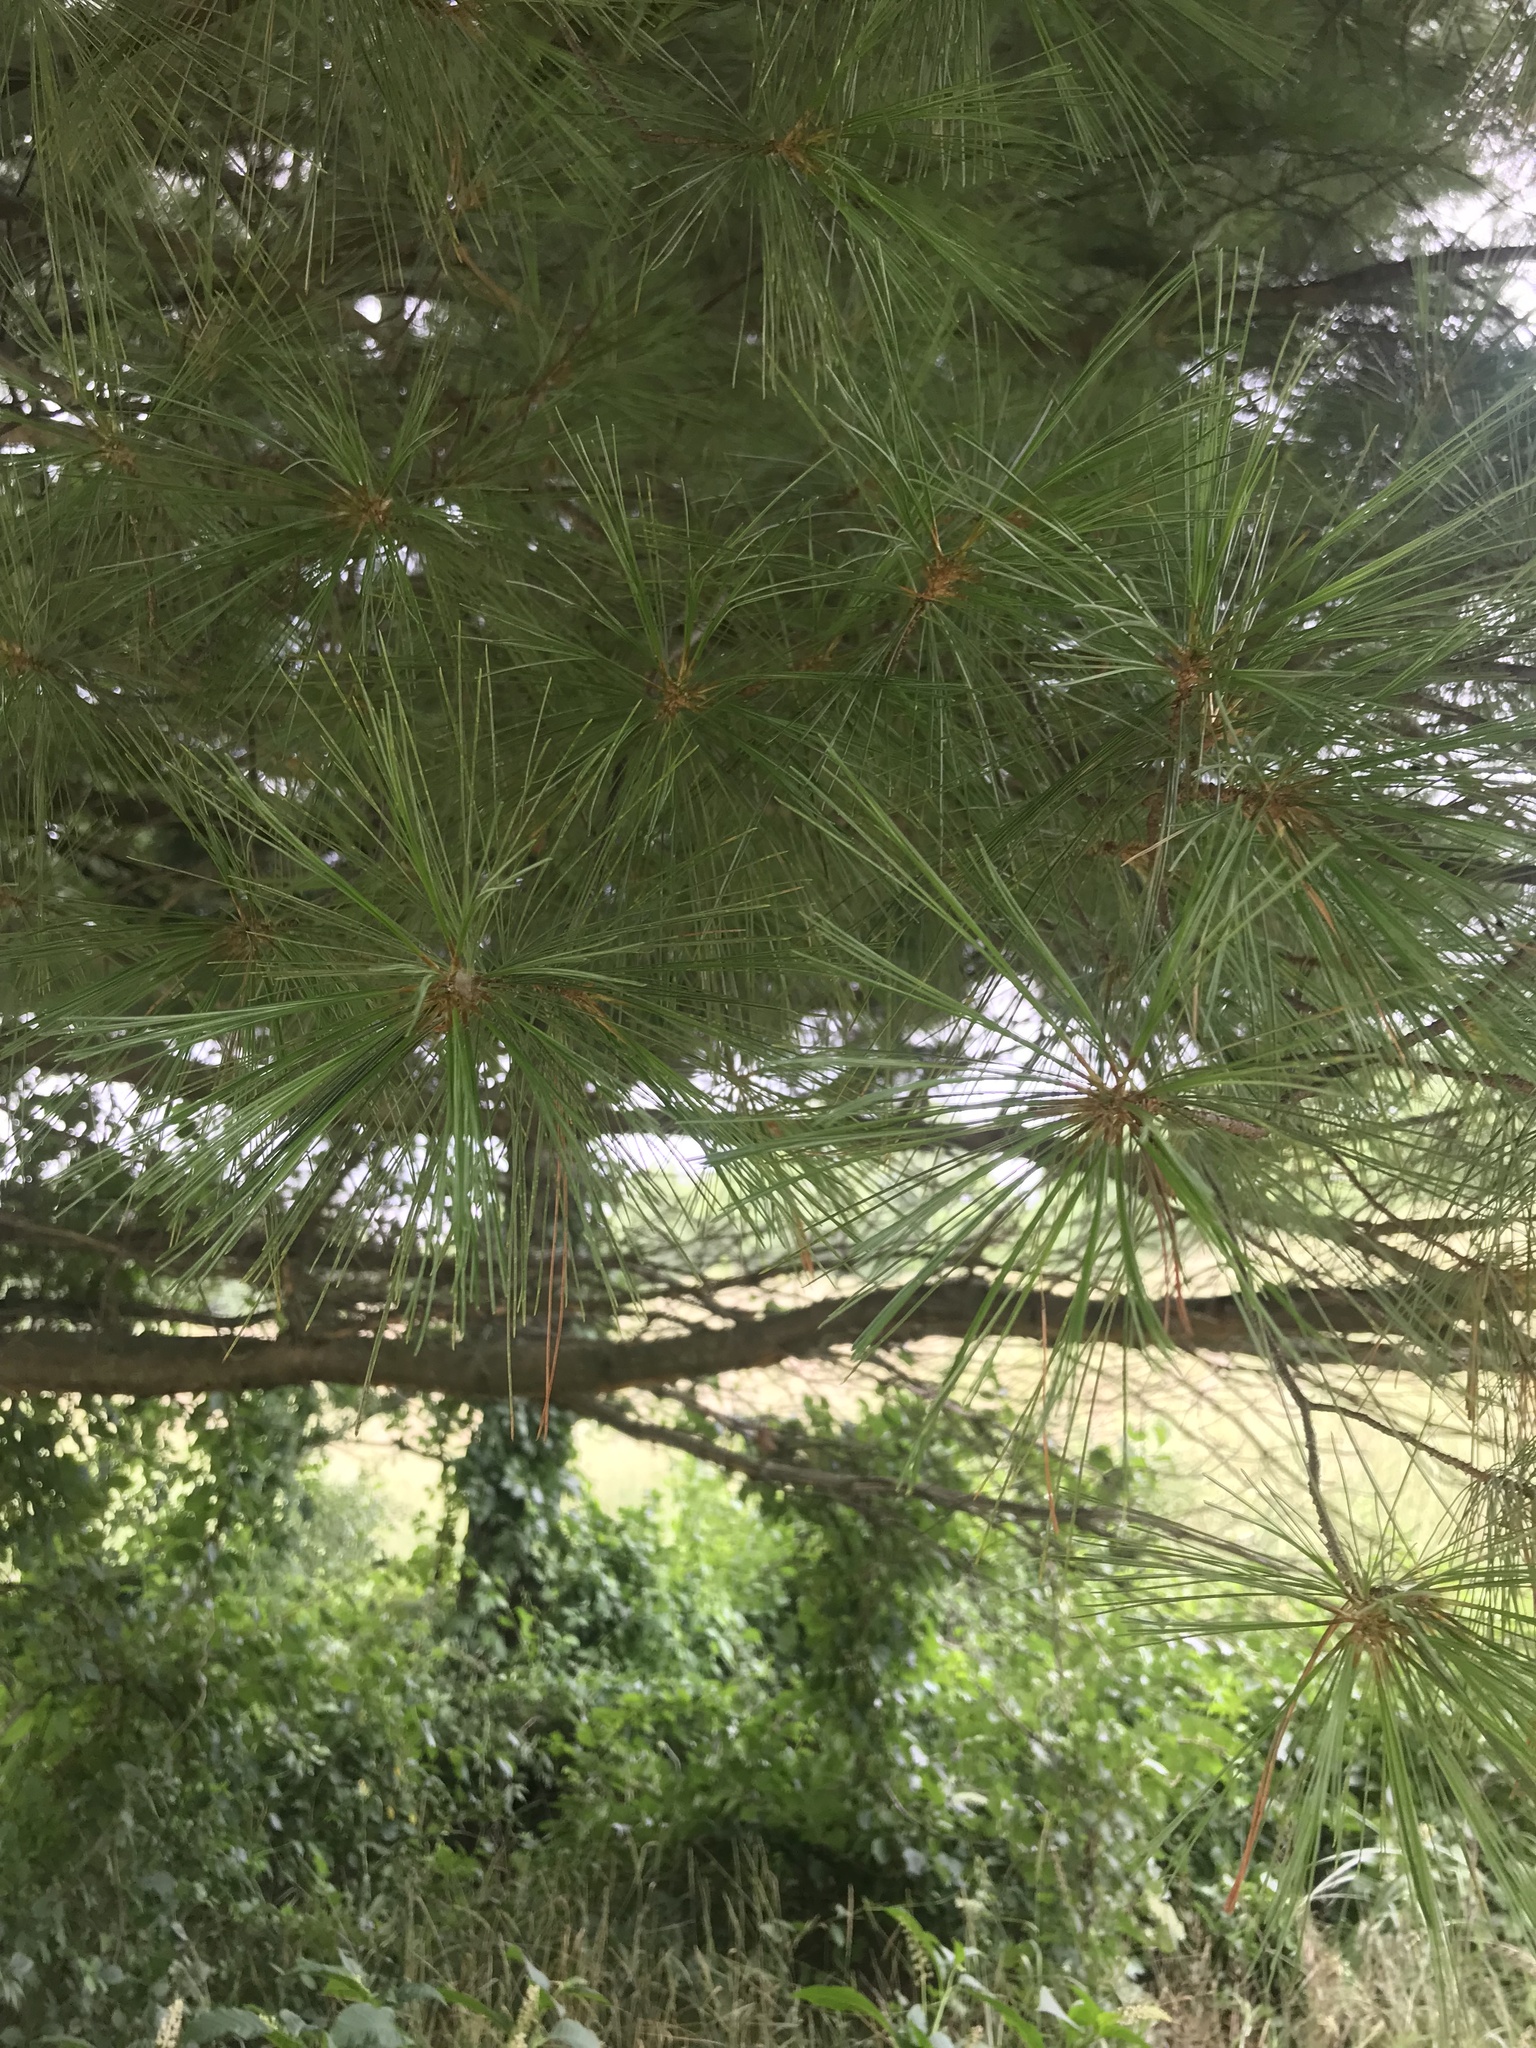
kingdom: Plantae
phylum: Tracheophyta
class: Pinopsida
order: Pinales
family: Pinaceae
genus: Pinus
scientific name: Pinus strobus
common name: Weymouth pine
